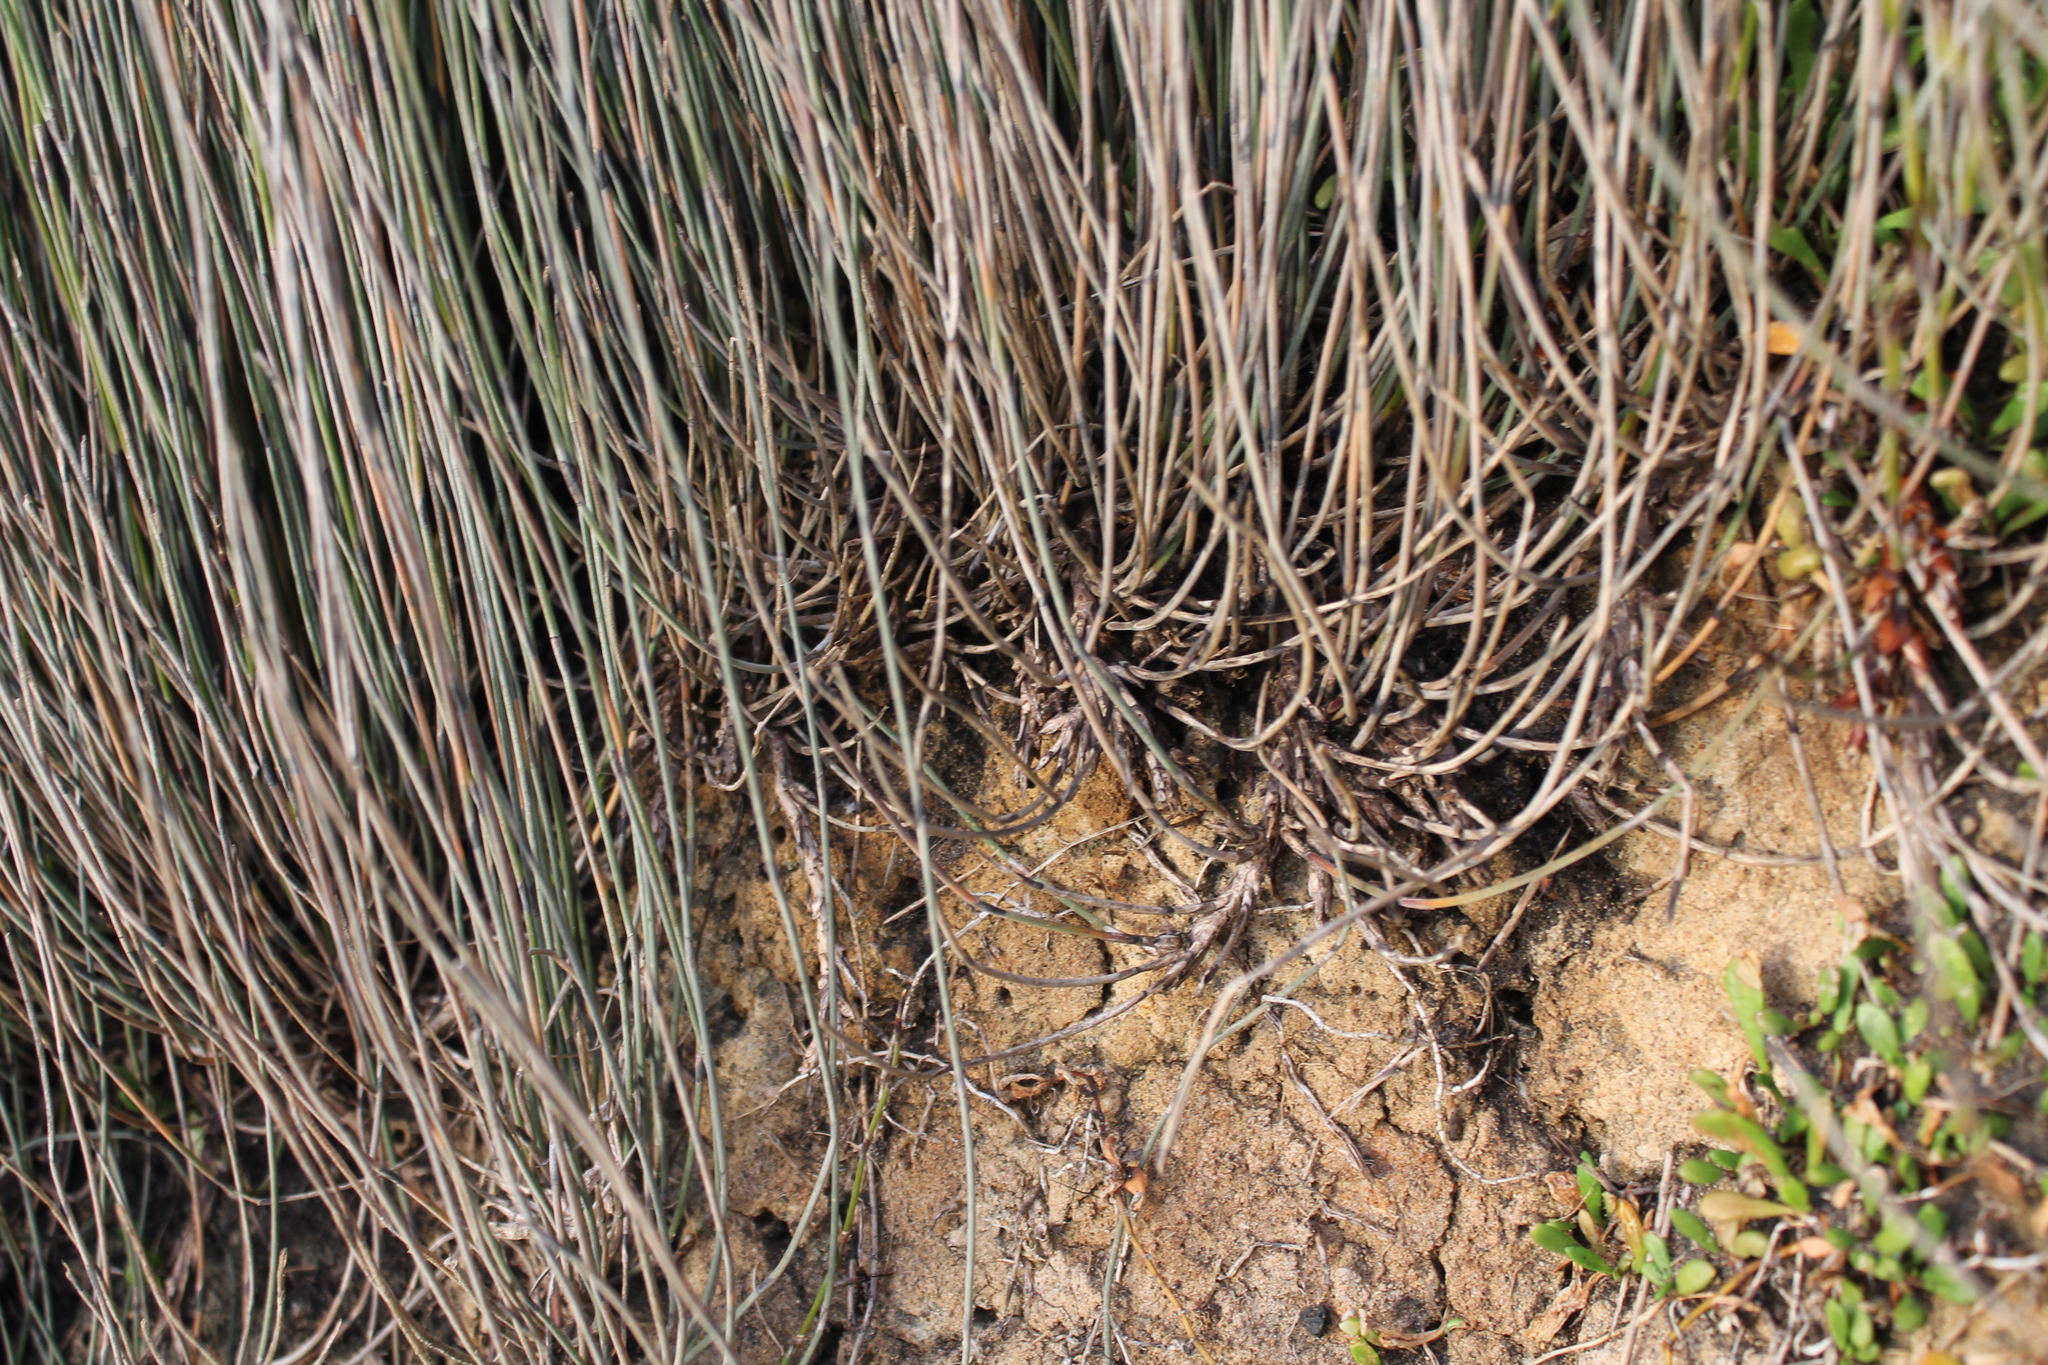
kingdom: Plantae
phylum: Tracheophyta
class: Liliopsida
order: Poales
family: Restionaceae
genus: Apodasmia
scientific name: Apodasmia similis
